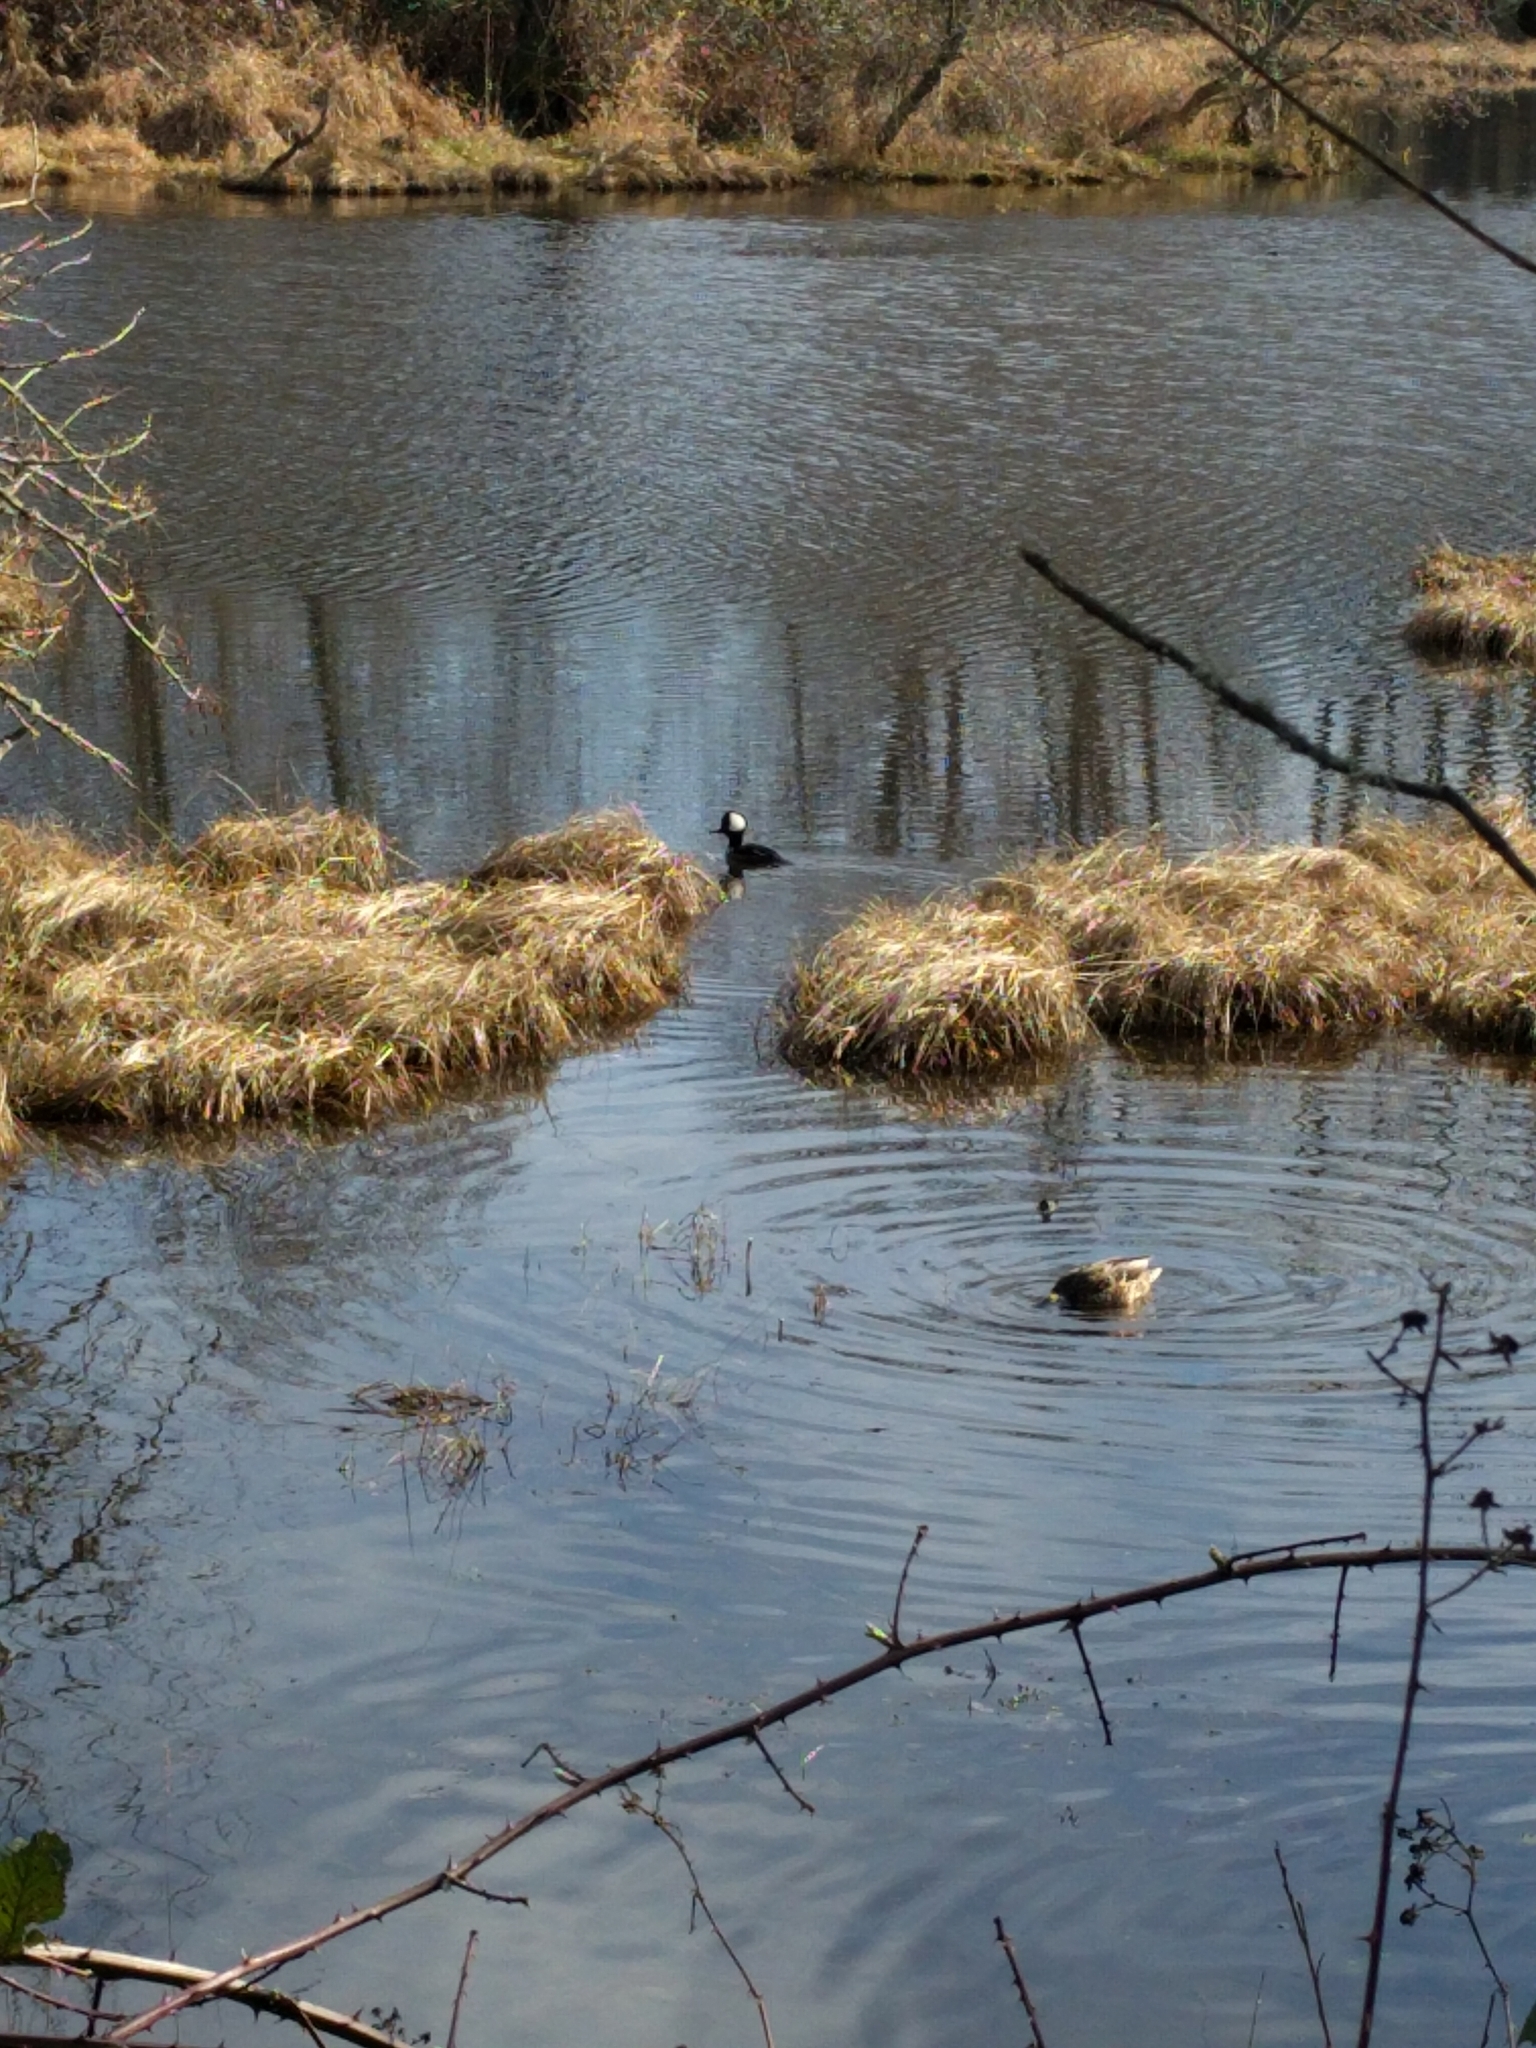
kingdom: Animalia
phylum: Chordata
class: Aves
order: Anseriformes
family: Anatidae
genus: Lophodytes
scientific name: Lophodytes cucullatus
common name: Hooded merganser
